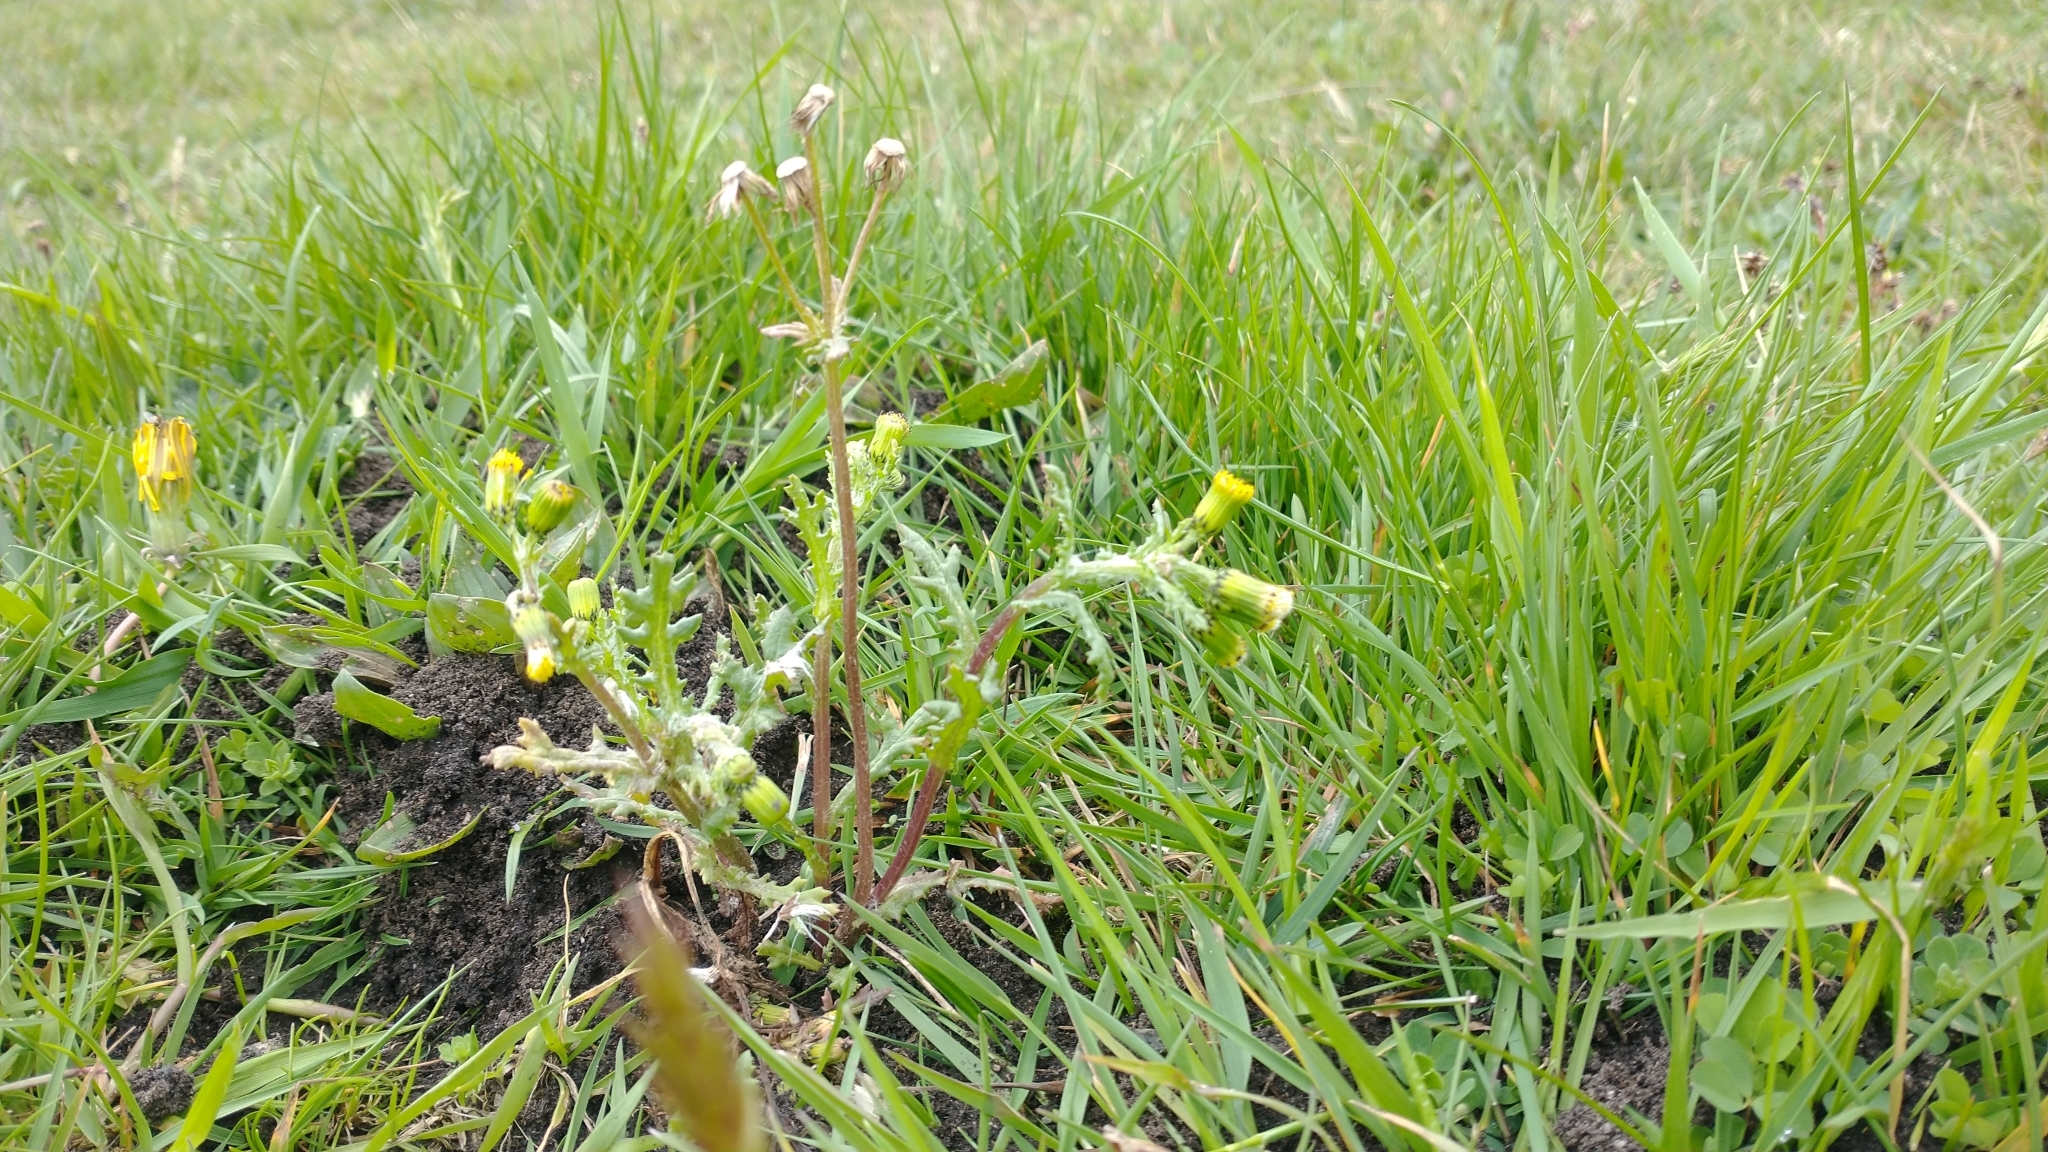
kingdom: Plantae
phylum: Tracheophyta
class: Magnoliopsida
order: Asterales
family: Asteraceae
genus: Senecio
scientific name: Senecio vulgaris
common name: Old-man-in-the-spring
